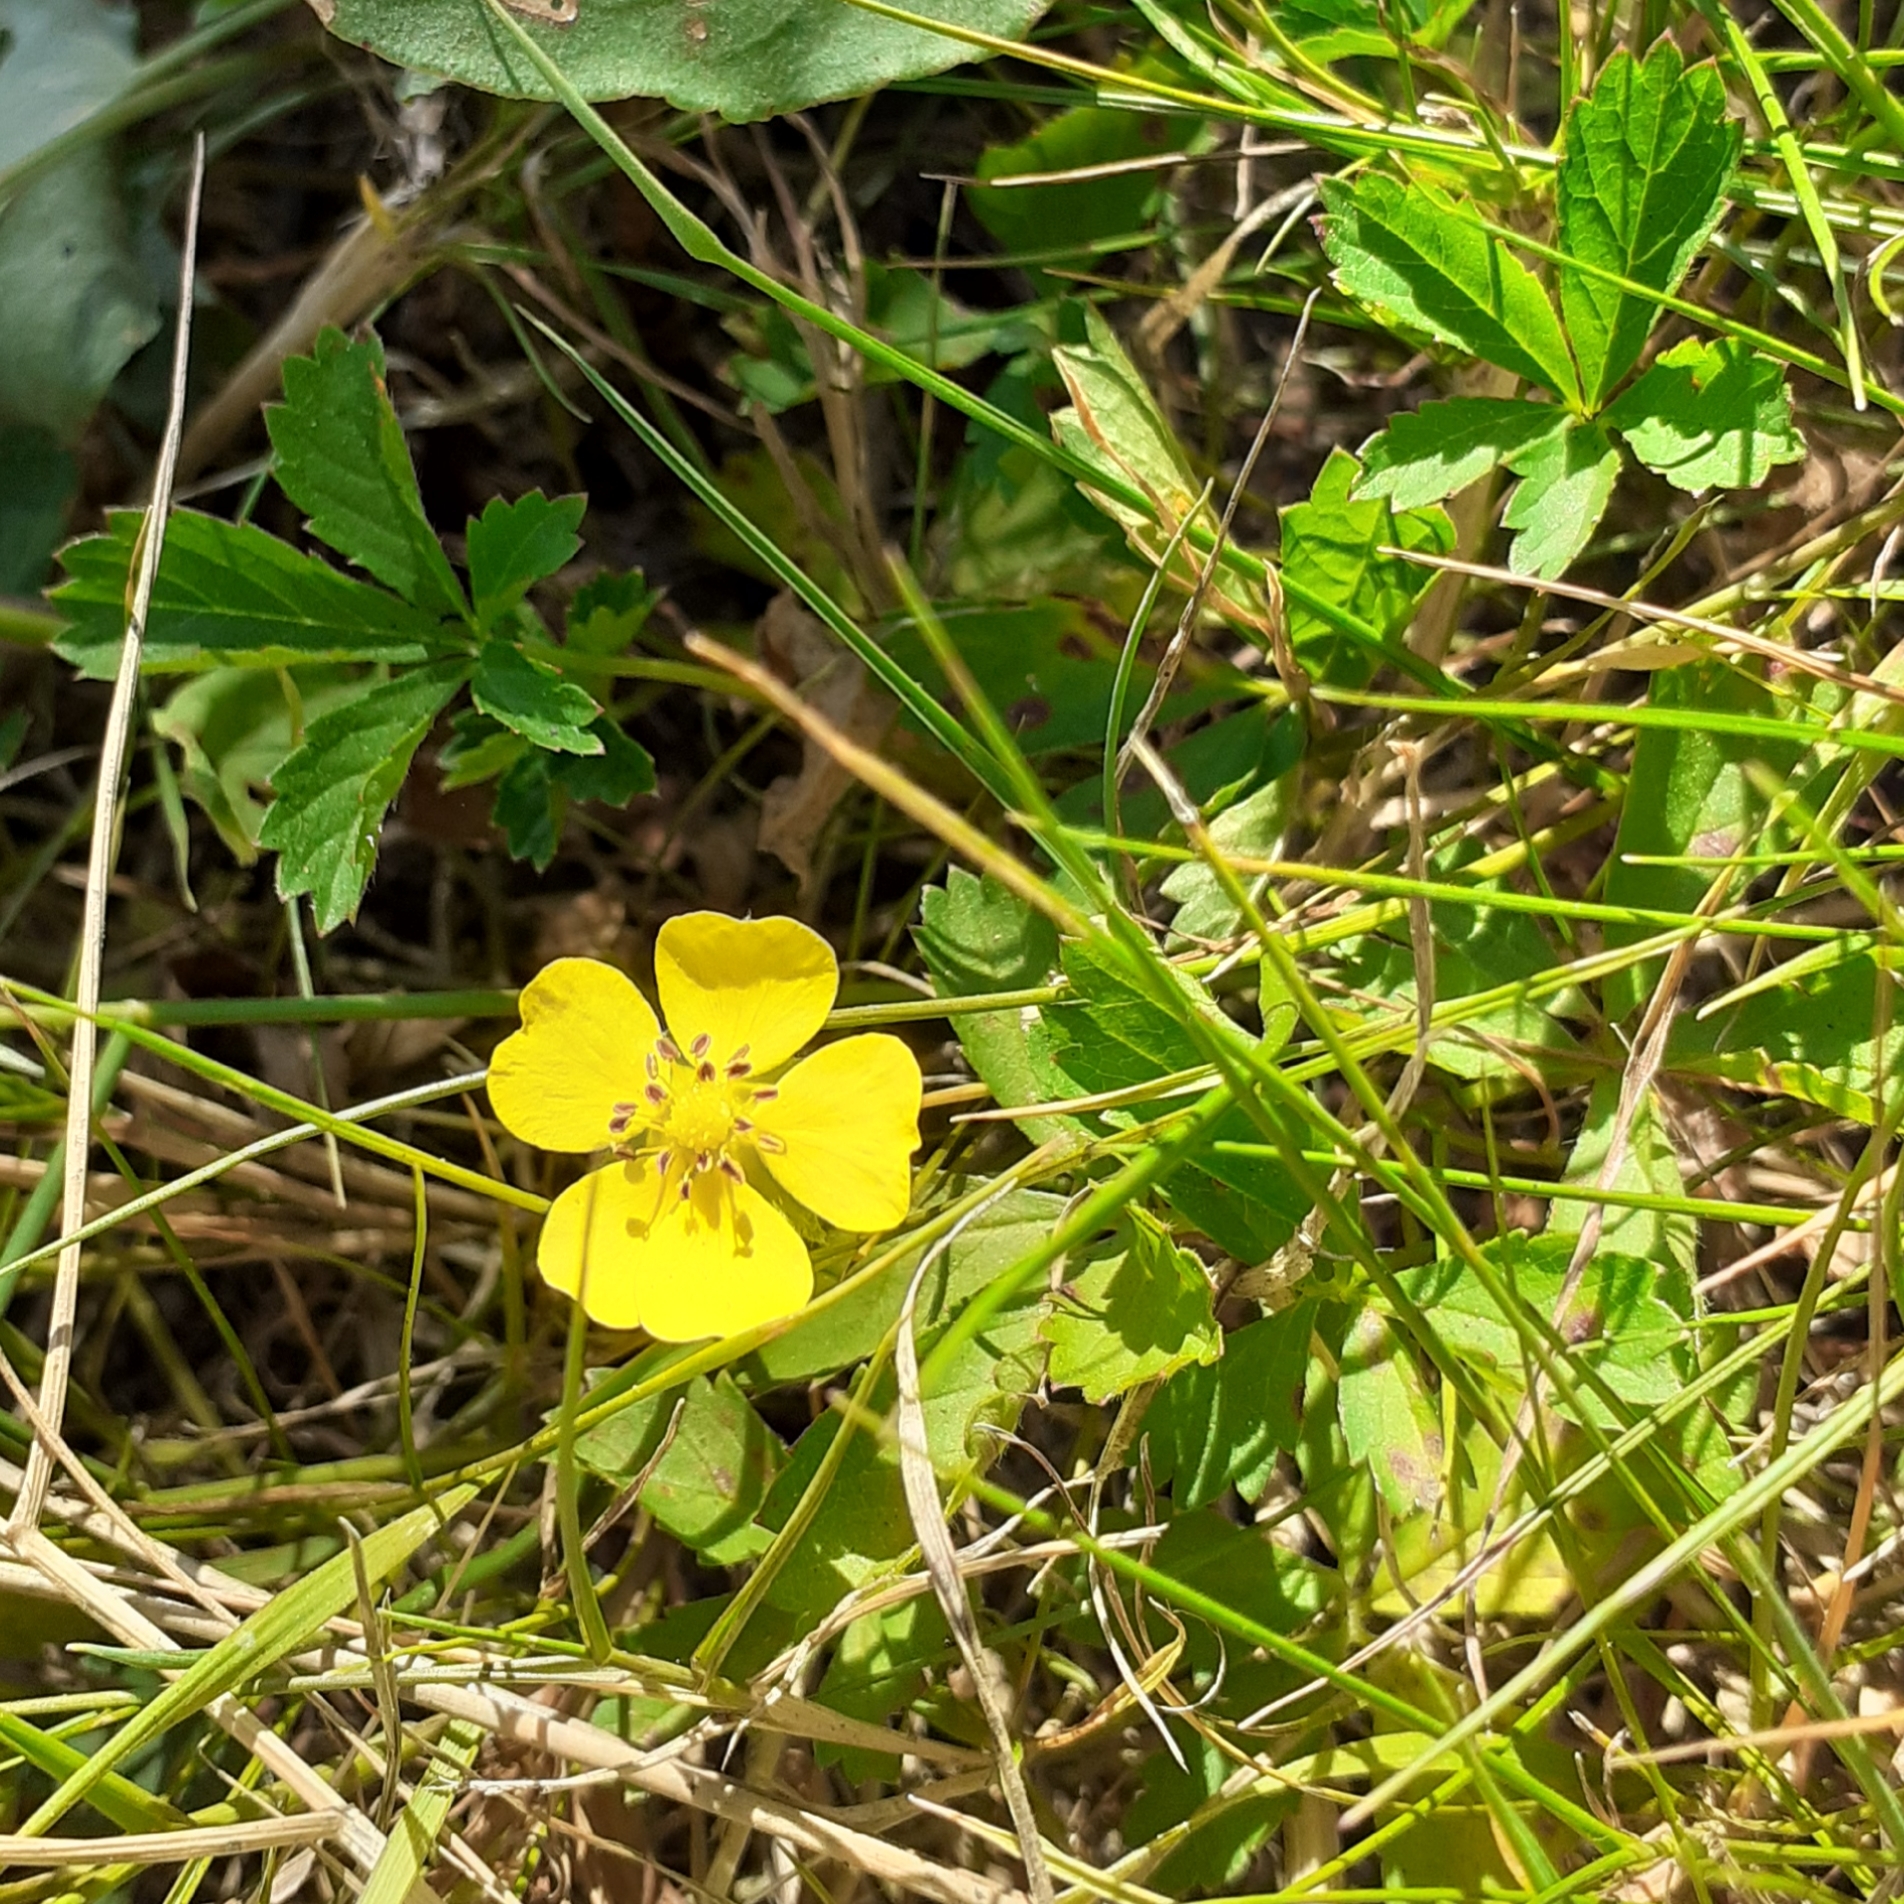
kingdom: Plantae
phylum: Tracheophyta
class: Magnoliopsida
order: Rosales
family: Rosaceae
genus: Potentilla
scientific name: Potentilla reptans
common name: Creeping cinquefoil
